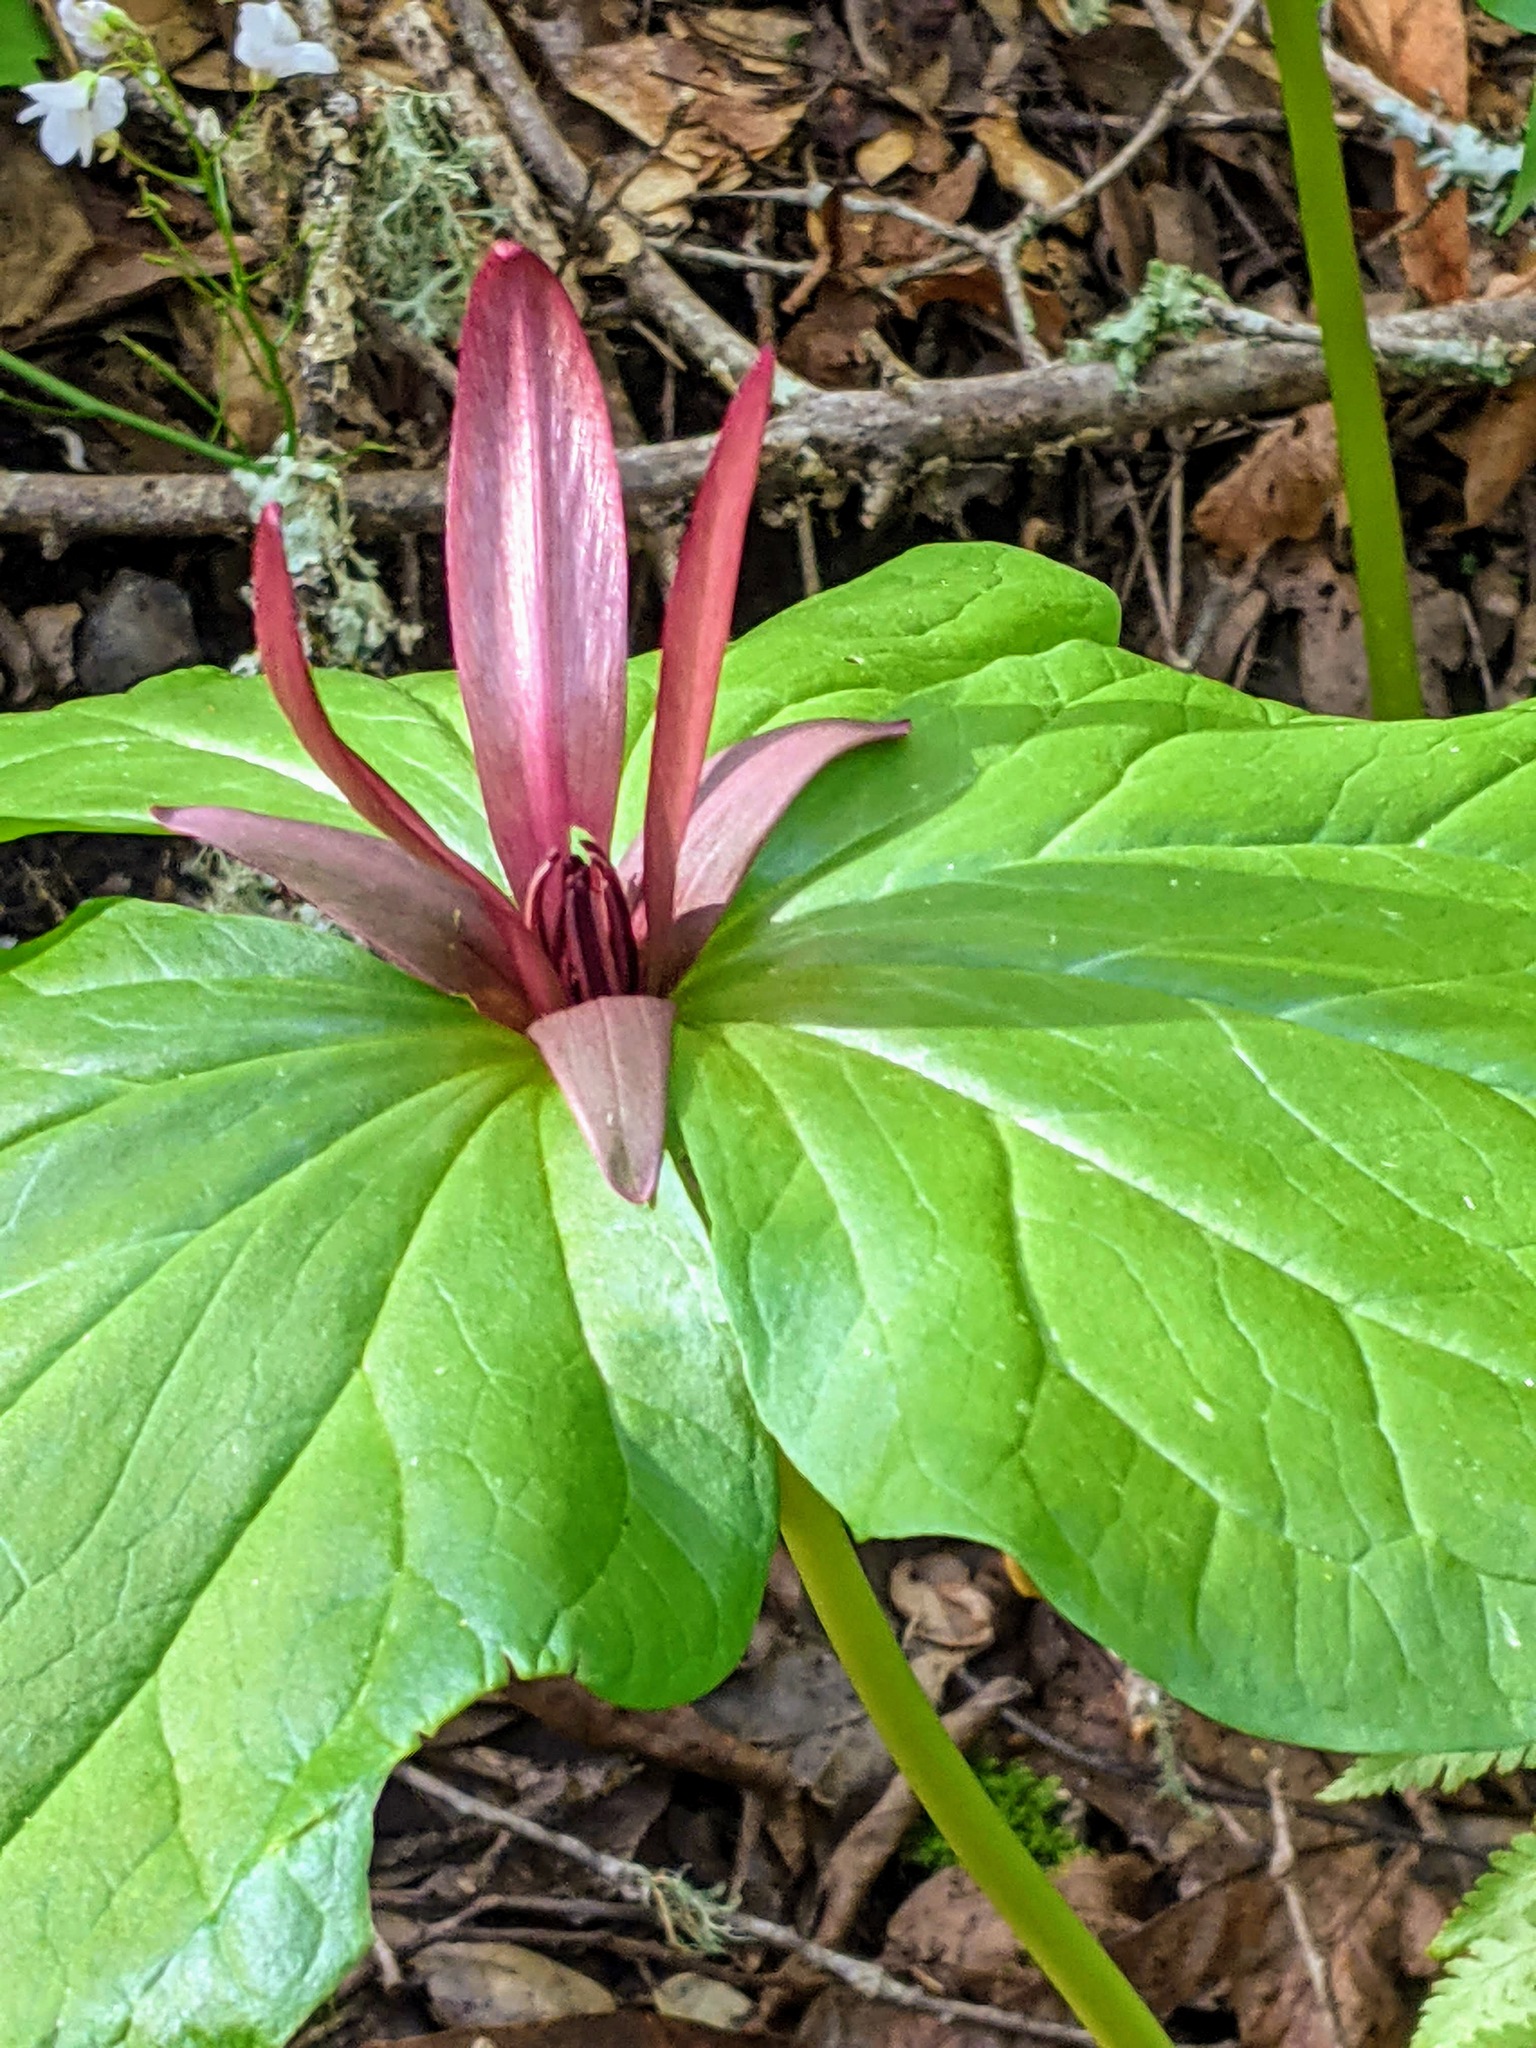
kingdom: Plantae
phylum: Tracheophyta
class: Liliopsida
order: Liliales
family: Melanthiaceae
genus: Trillium
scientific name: Trillium chloropetalum
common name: Giant trillium
